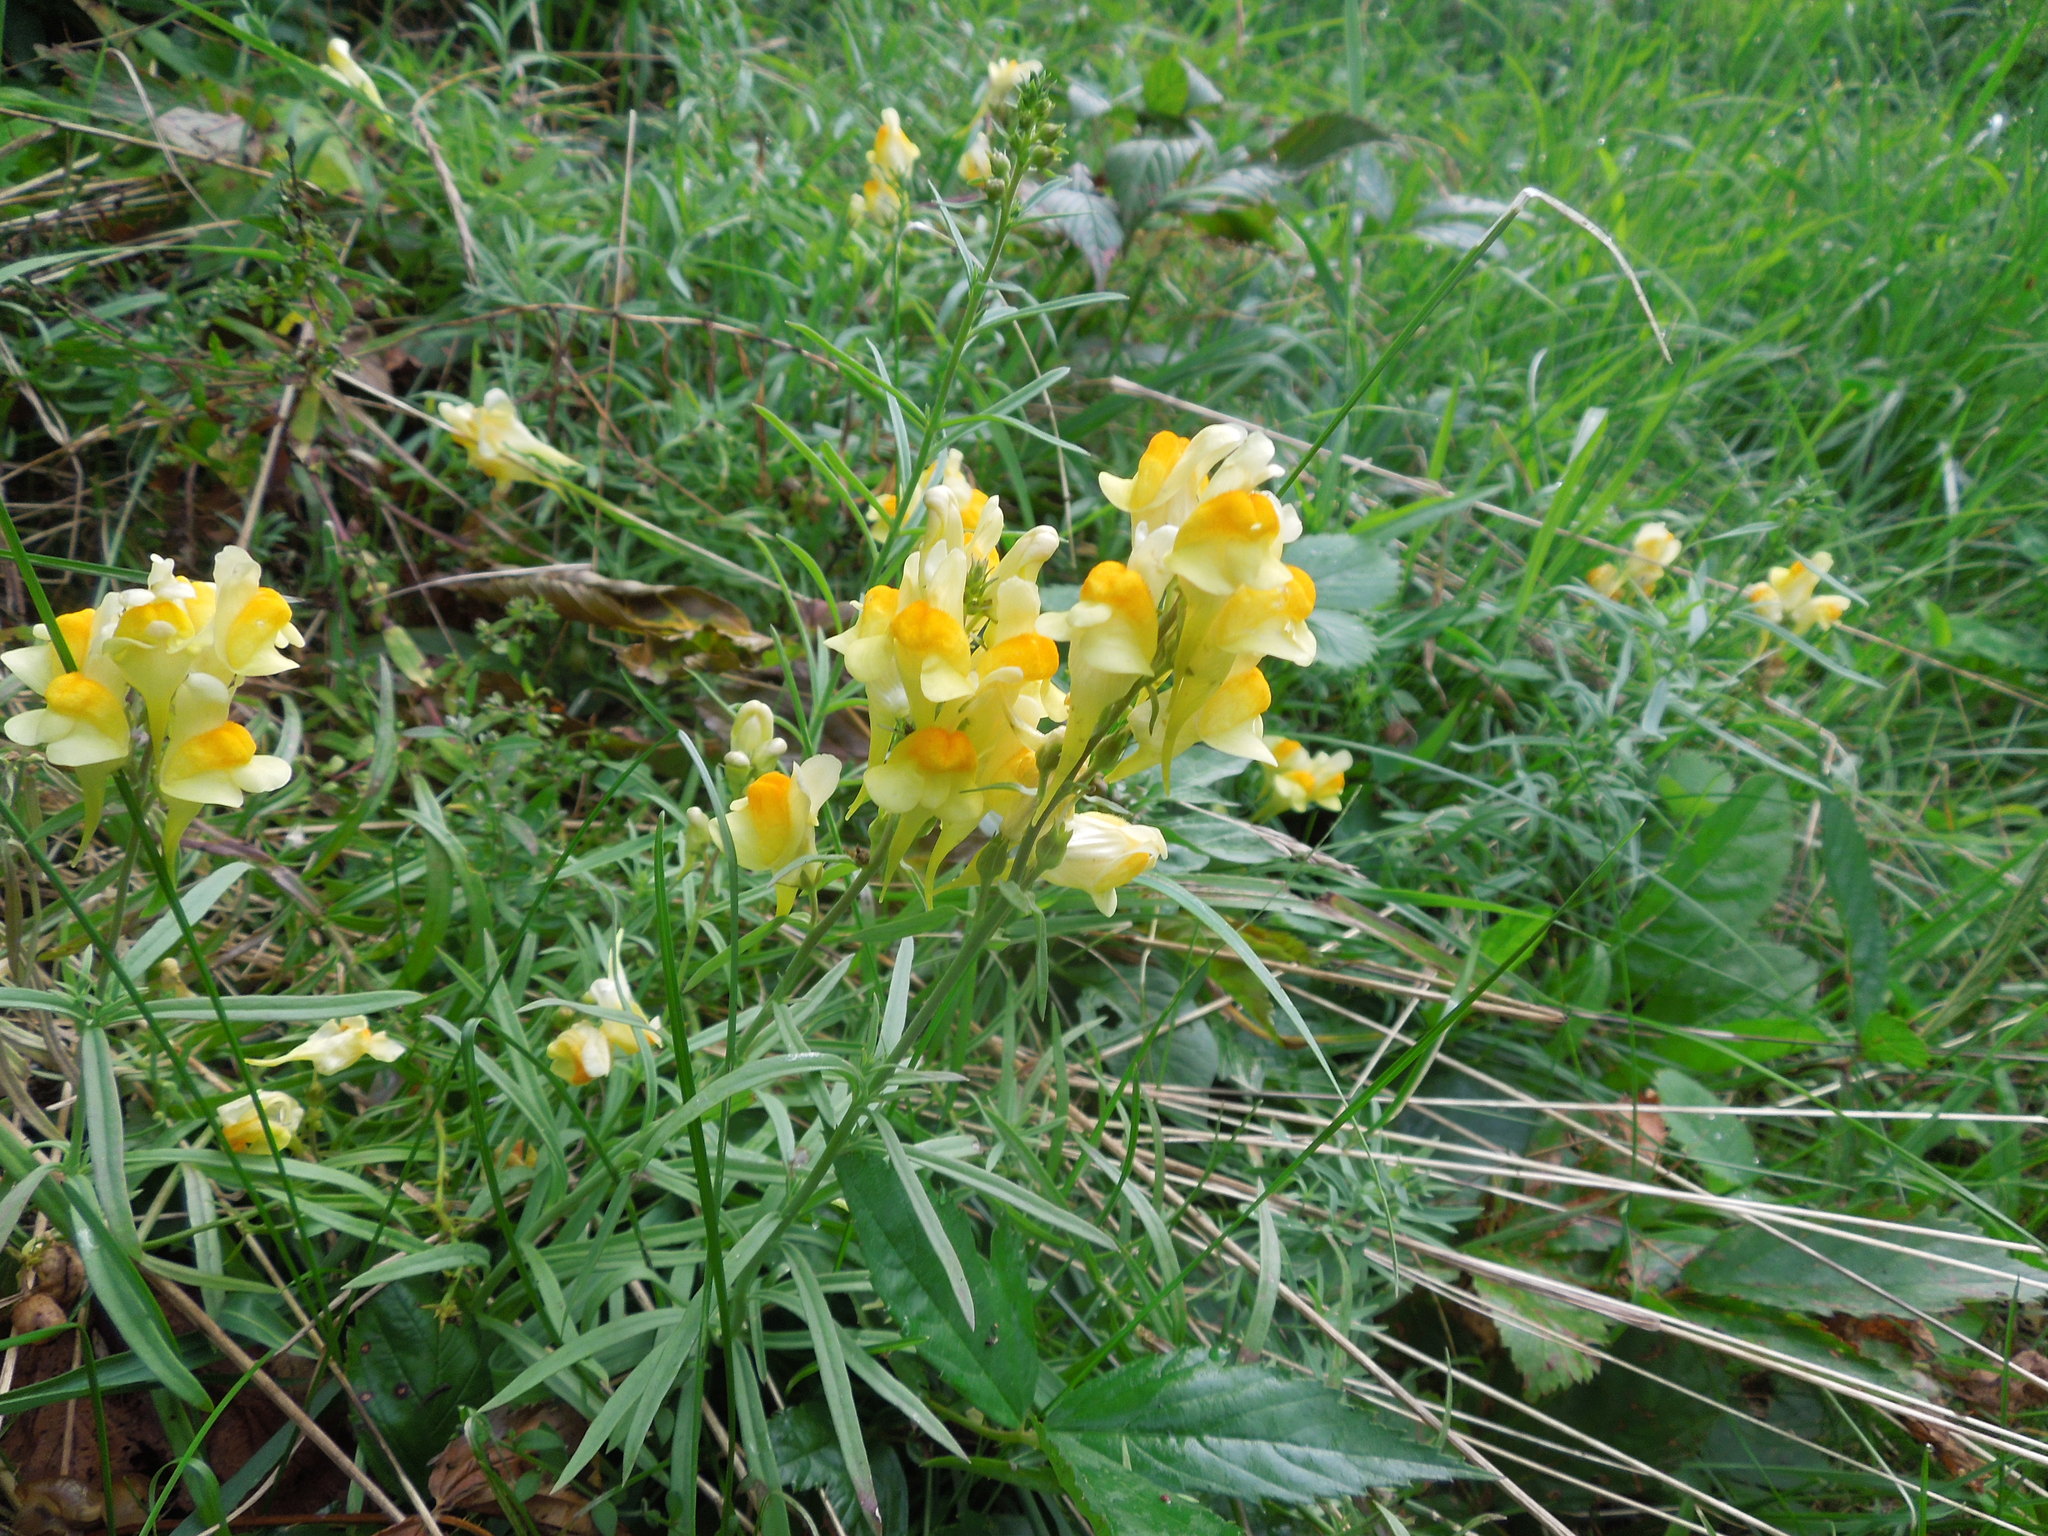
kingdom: Plantae
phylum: Tracheophyta
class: Magnoliopsida
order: Lamiales
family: Plantaginaceae
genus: Linaria
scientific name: Linaria vulgaris
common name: Butter and eggs
